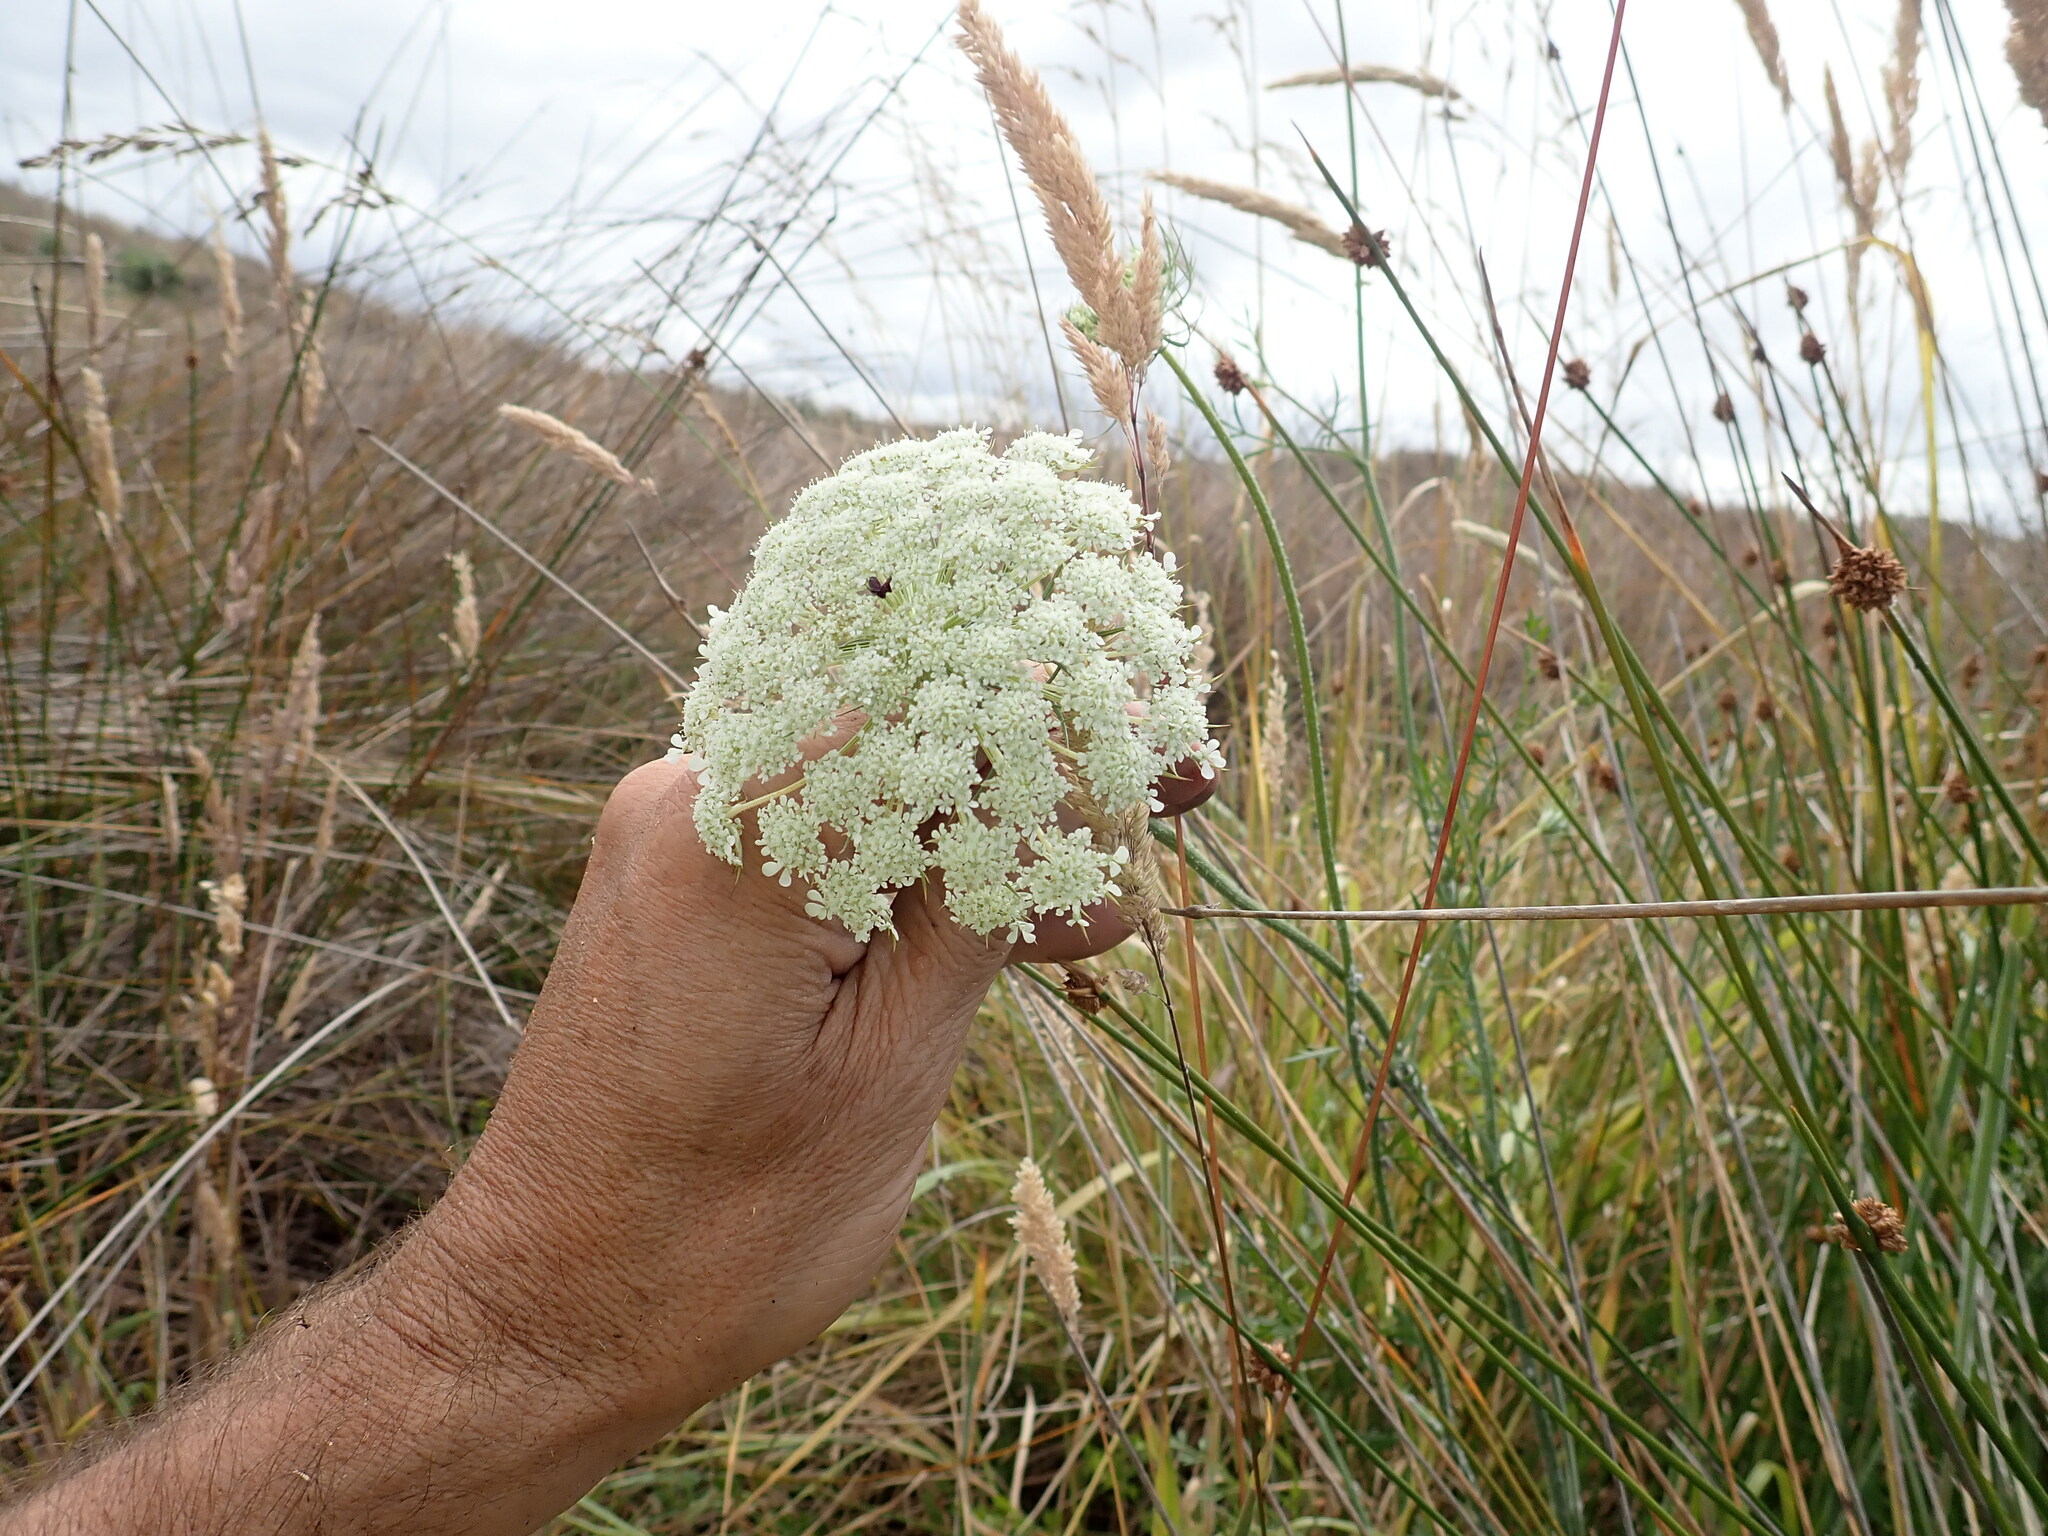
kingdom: Plantae
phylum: Tracheophyta
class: Magnoliopsida
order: Apiales
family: Apiaceae
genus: Daucus
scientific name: Daucus carota
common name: Wild carrot
